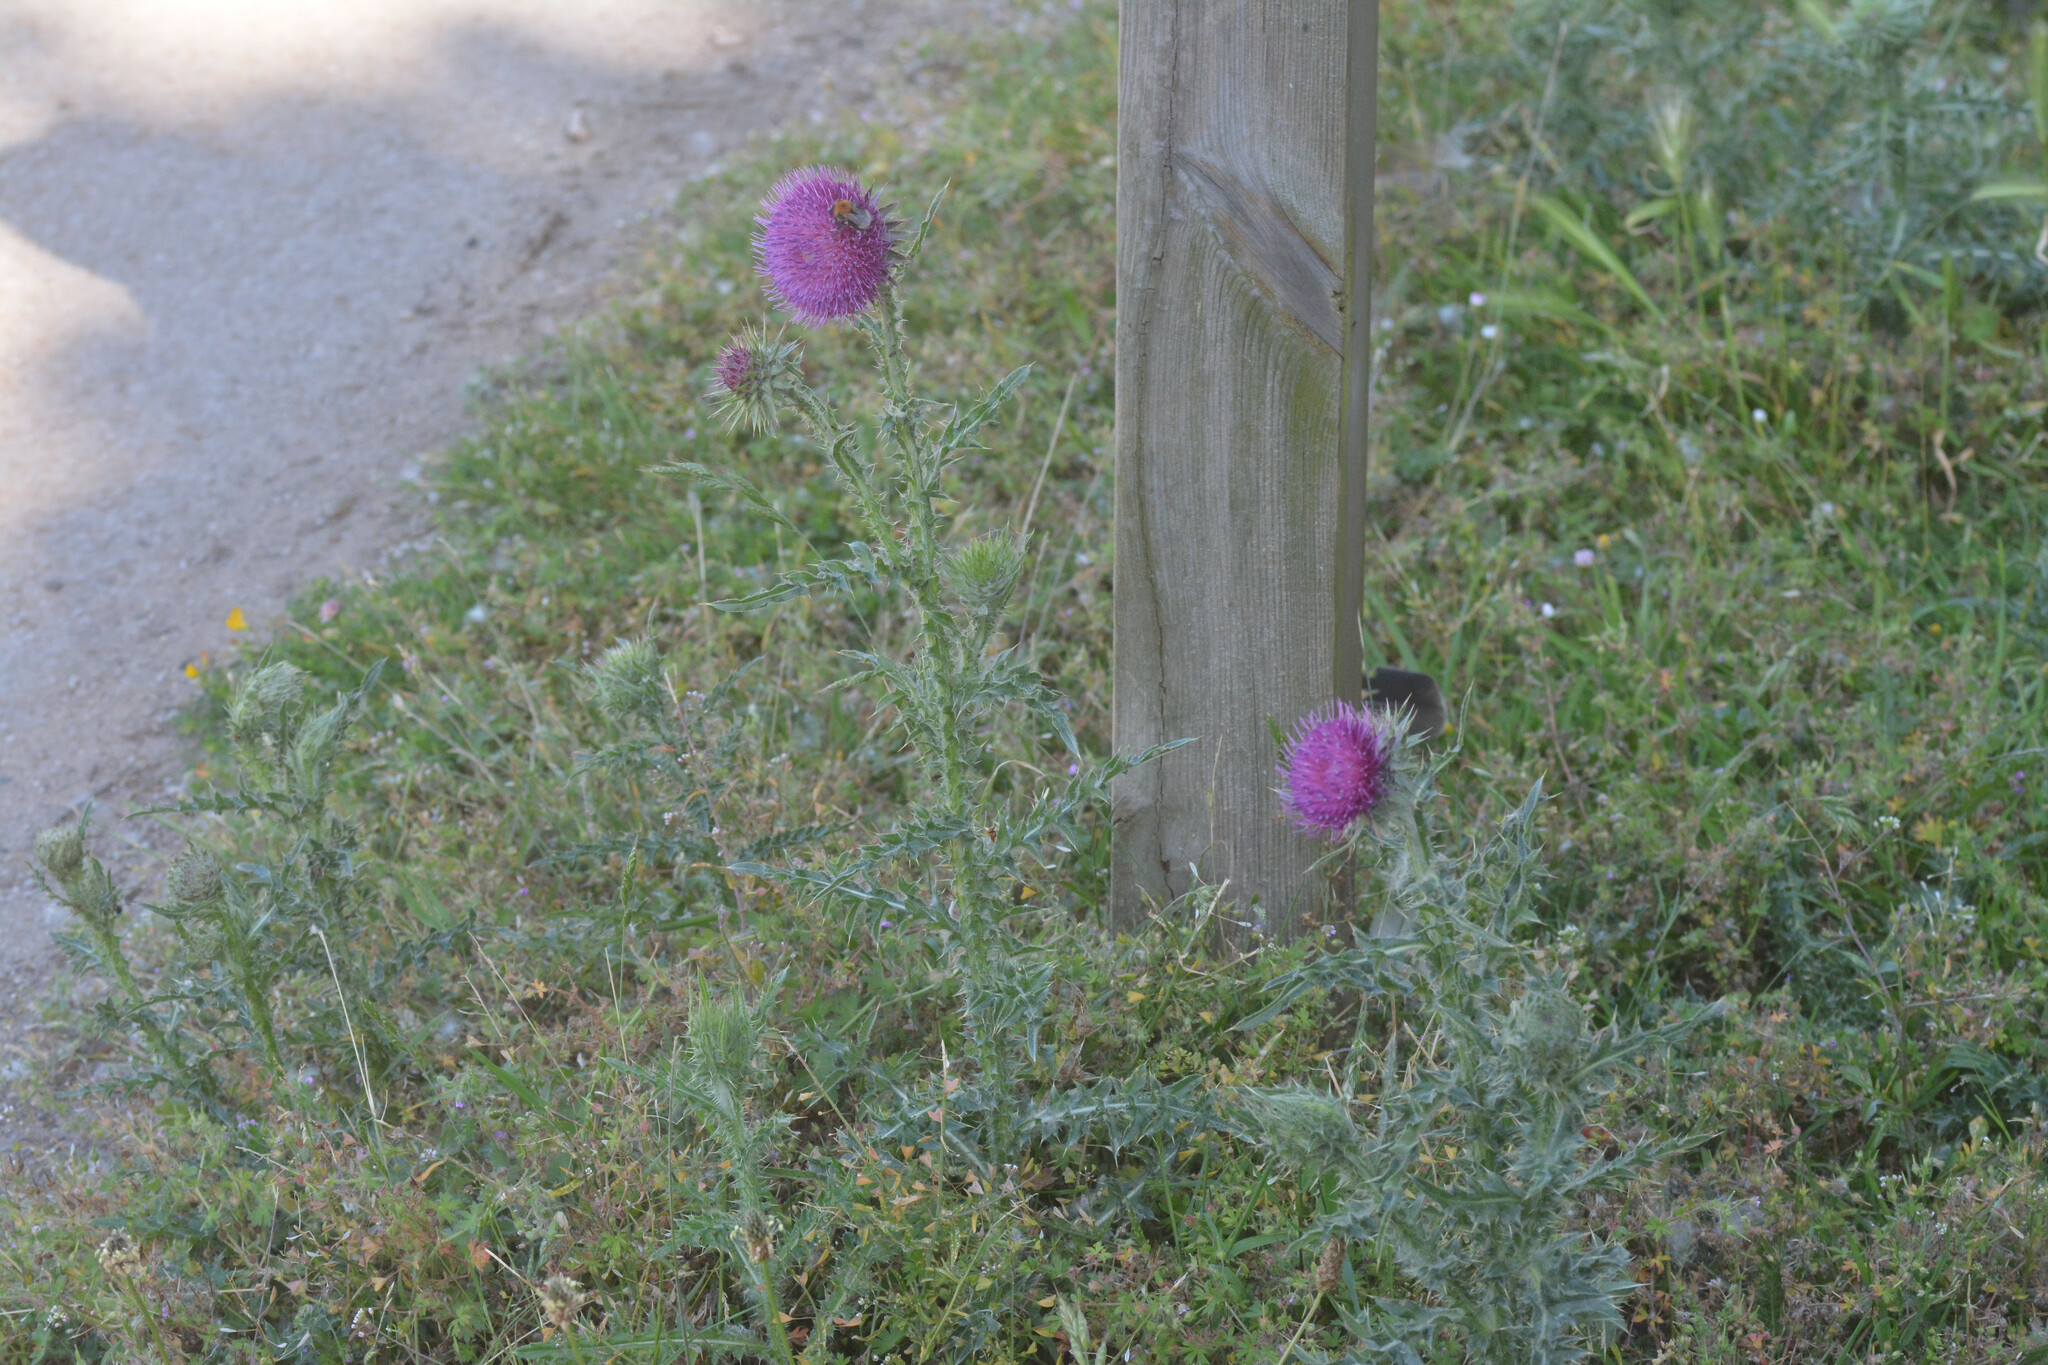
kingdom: Plantae
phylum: Tracheophyta
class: Magnoliopsida
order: Asterales
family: Asteraceae
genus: Carduus
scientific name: Carduus nutans
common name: Musk thistle
